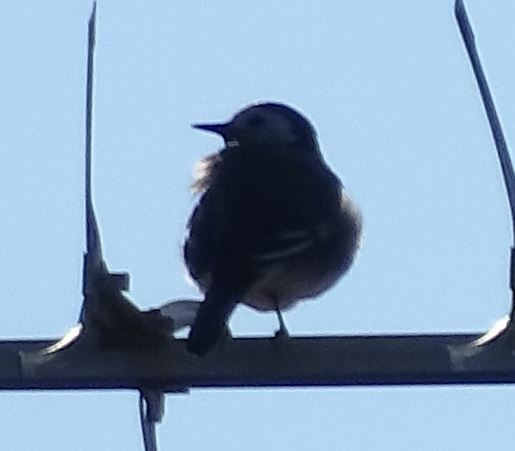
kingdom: Animalia
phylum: Chordata
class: Aves
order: Passeriformes
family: Motacillidae
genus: Motacilla
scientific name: Motacilla alba
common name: White wagtail
